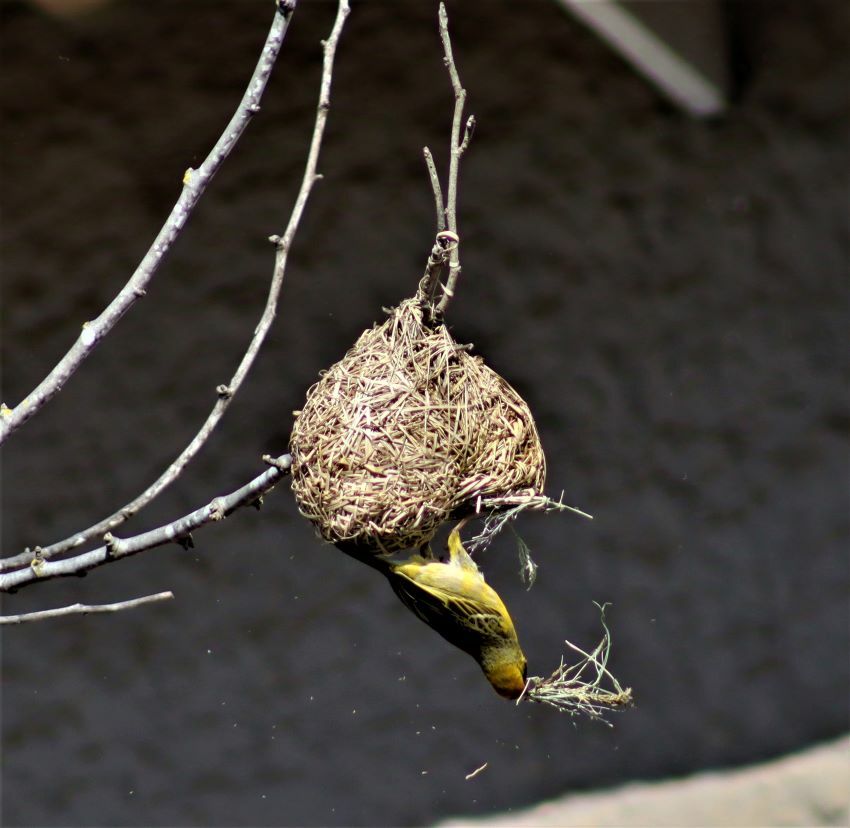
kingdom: Animalia
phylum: Chordata
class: Aves
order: Passeriformes
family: Ploceidae
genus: Ploceus
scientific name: Ploceus velatus
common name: Southern masked weaver
